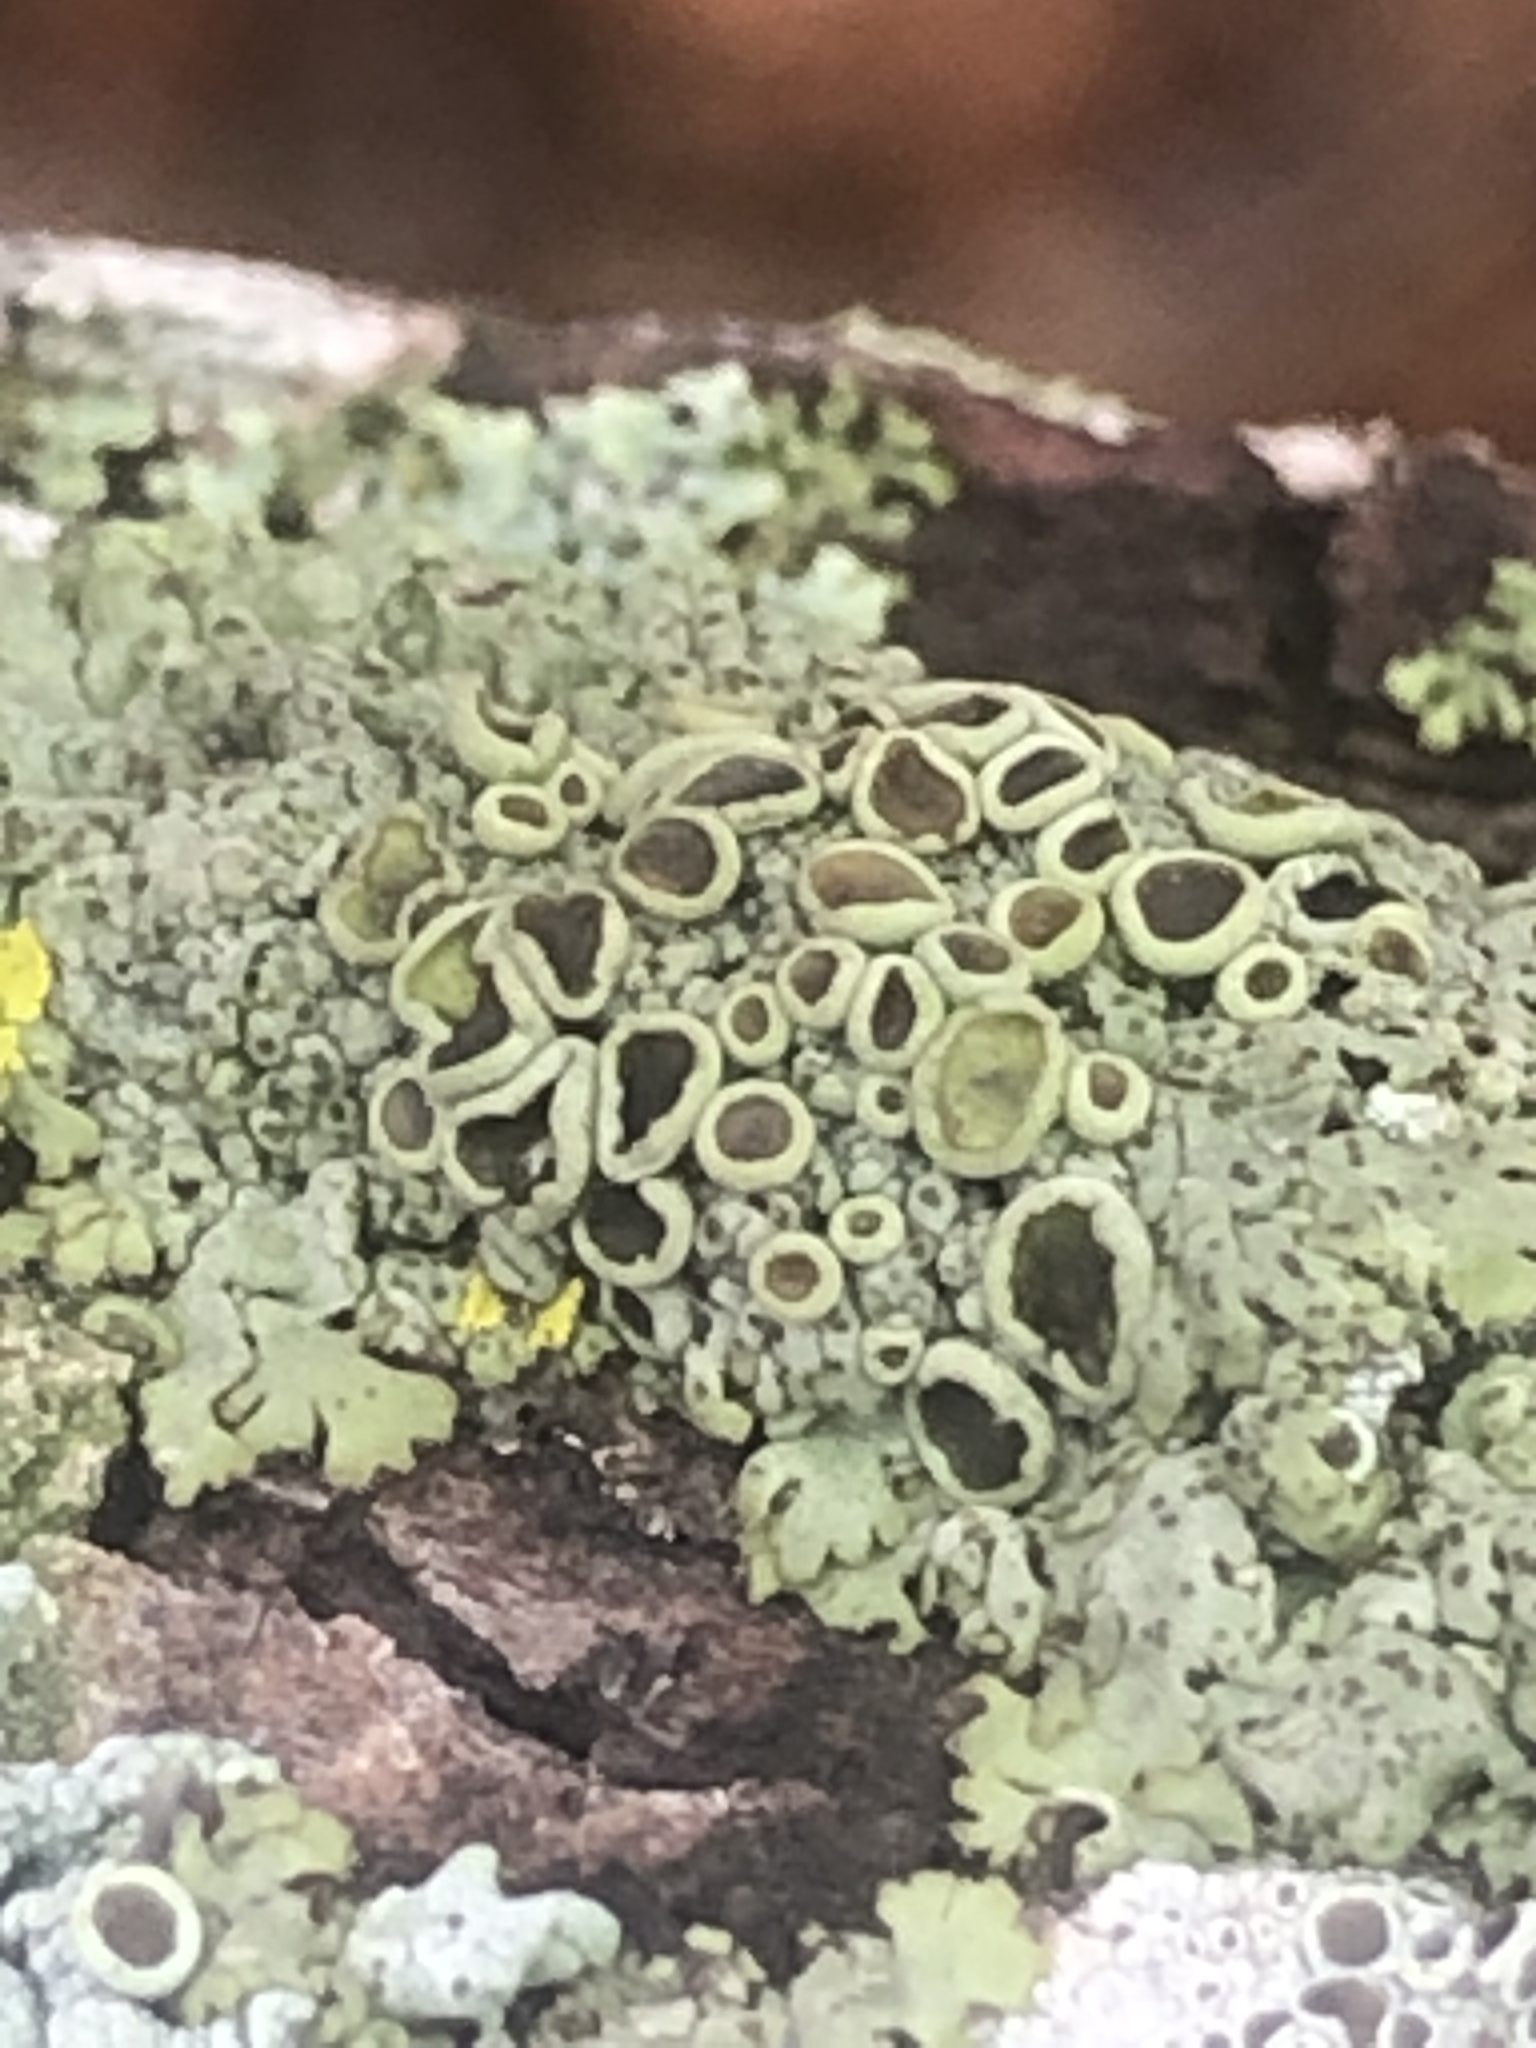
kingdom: Fungi
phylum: Ascomycota
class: Lecanoromycetes
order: Caliciales
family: Physciaceae
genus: Phaeophyscia
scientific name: Phaeophyscia ciliata
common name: Smooth shadow lichen
